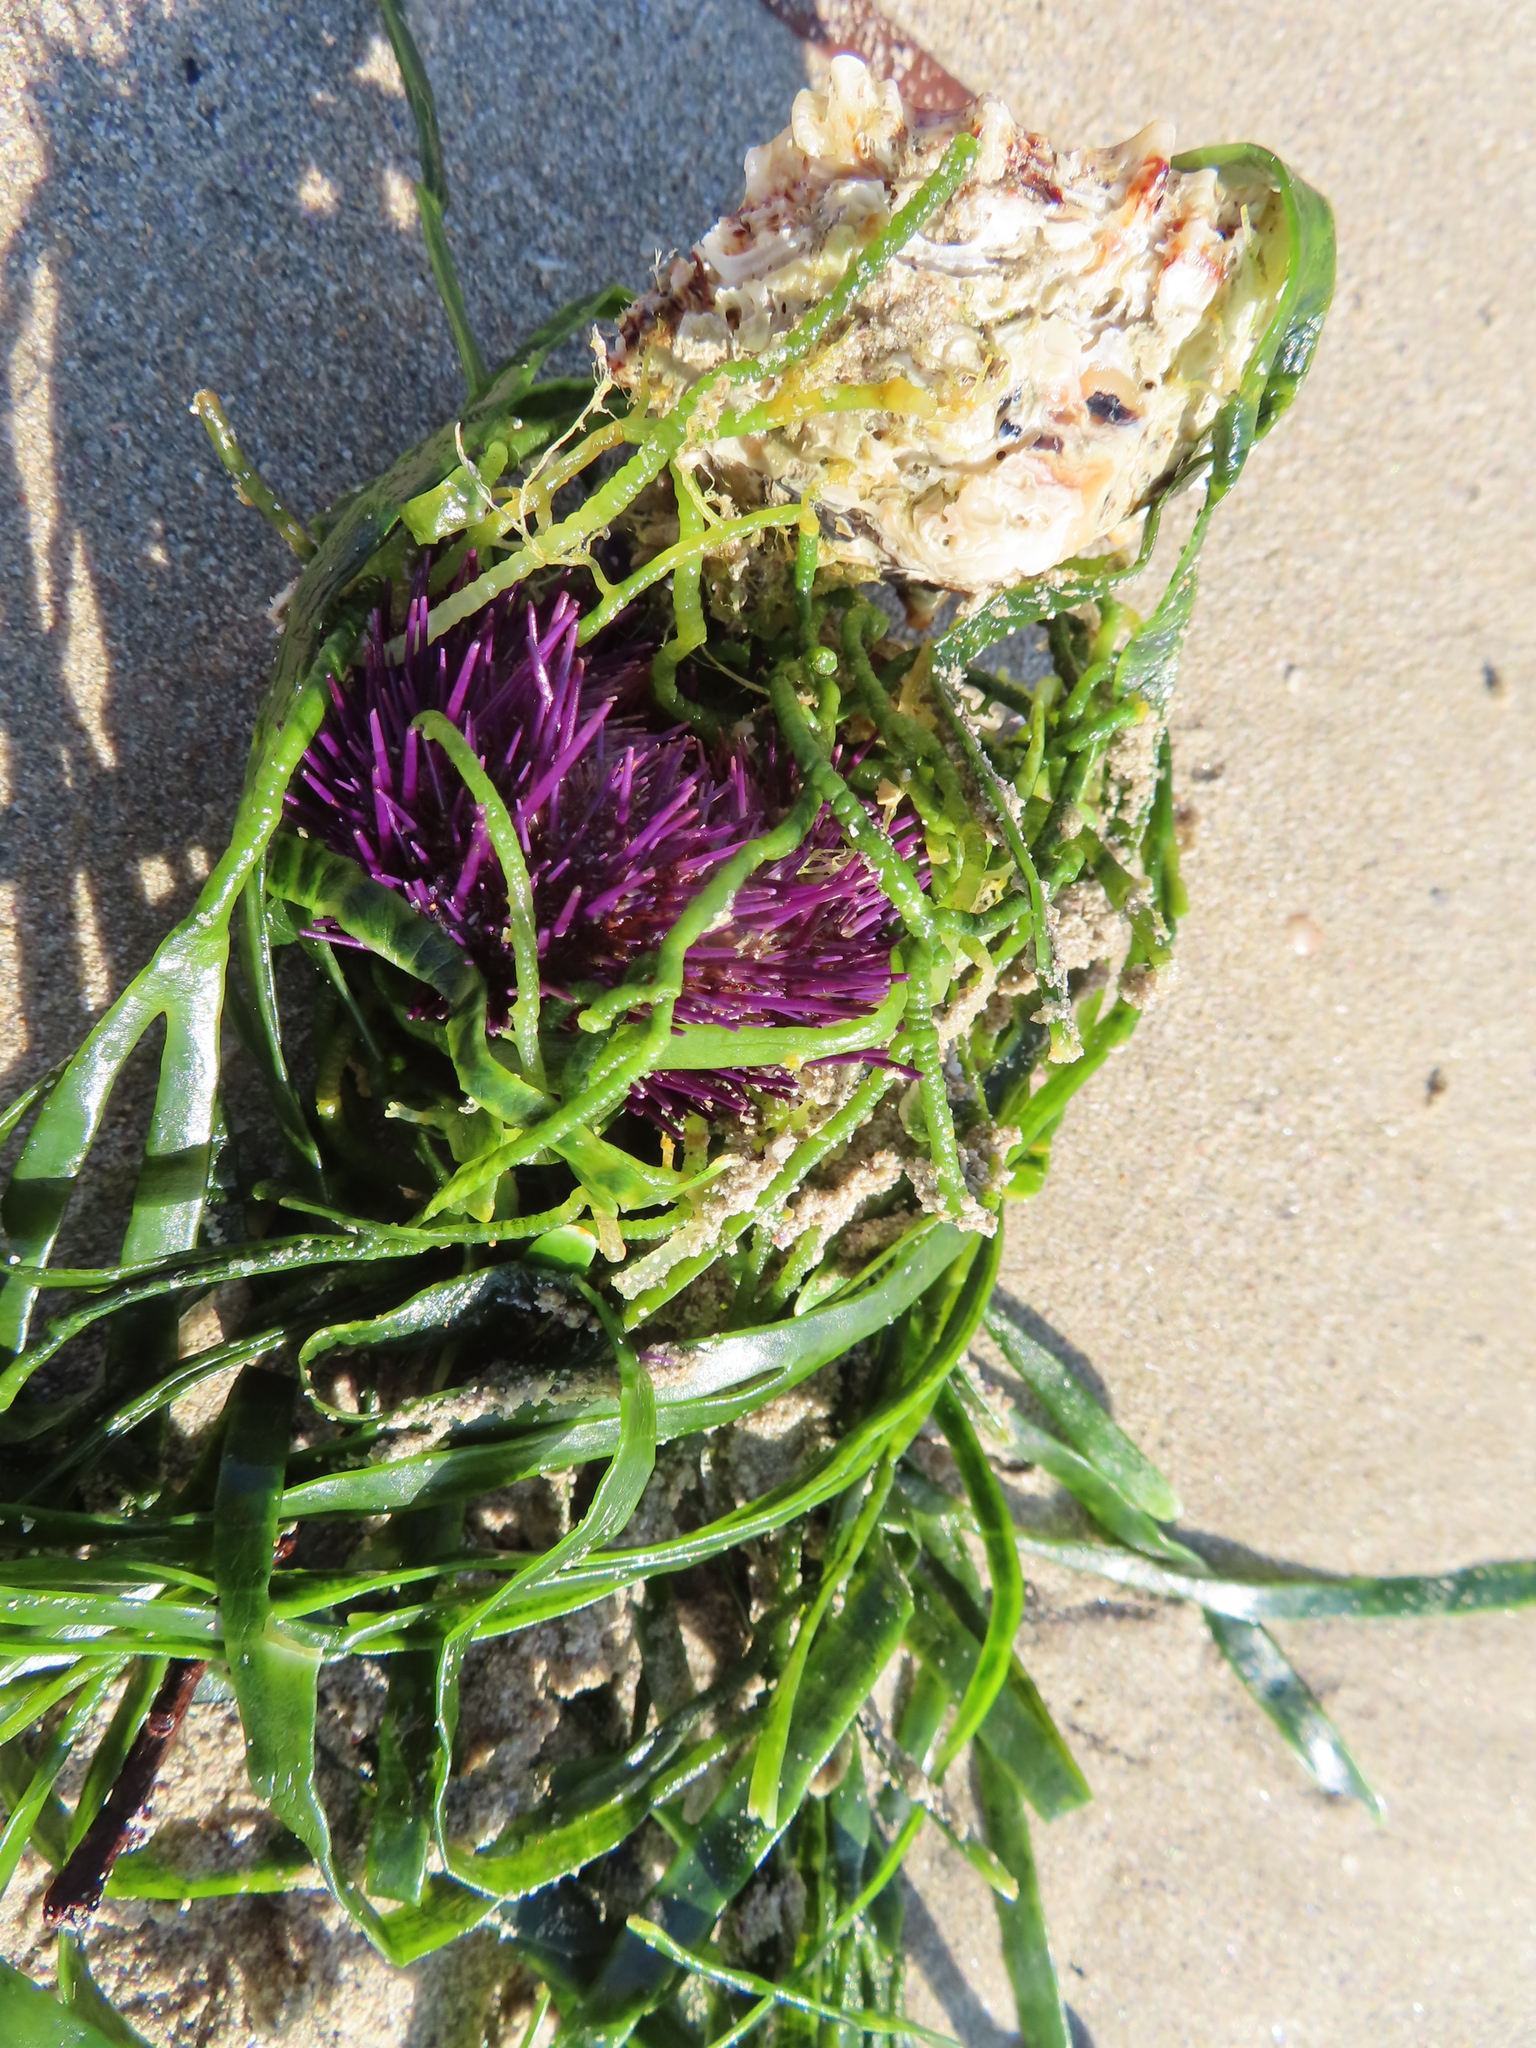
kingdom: Animalia
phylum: Echinodermata
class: Echinoidea
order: Camarodonta
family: Parechinidae
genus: Parechinus
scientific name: Parechinus angulosus
